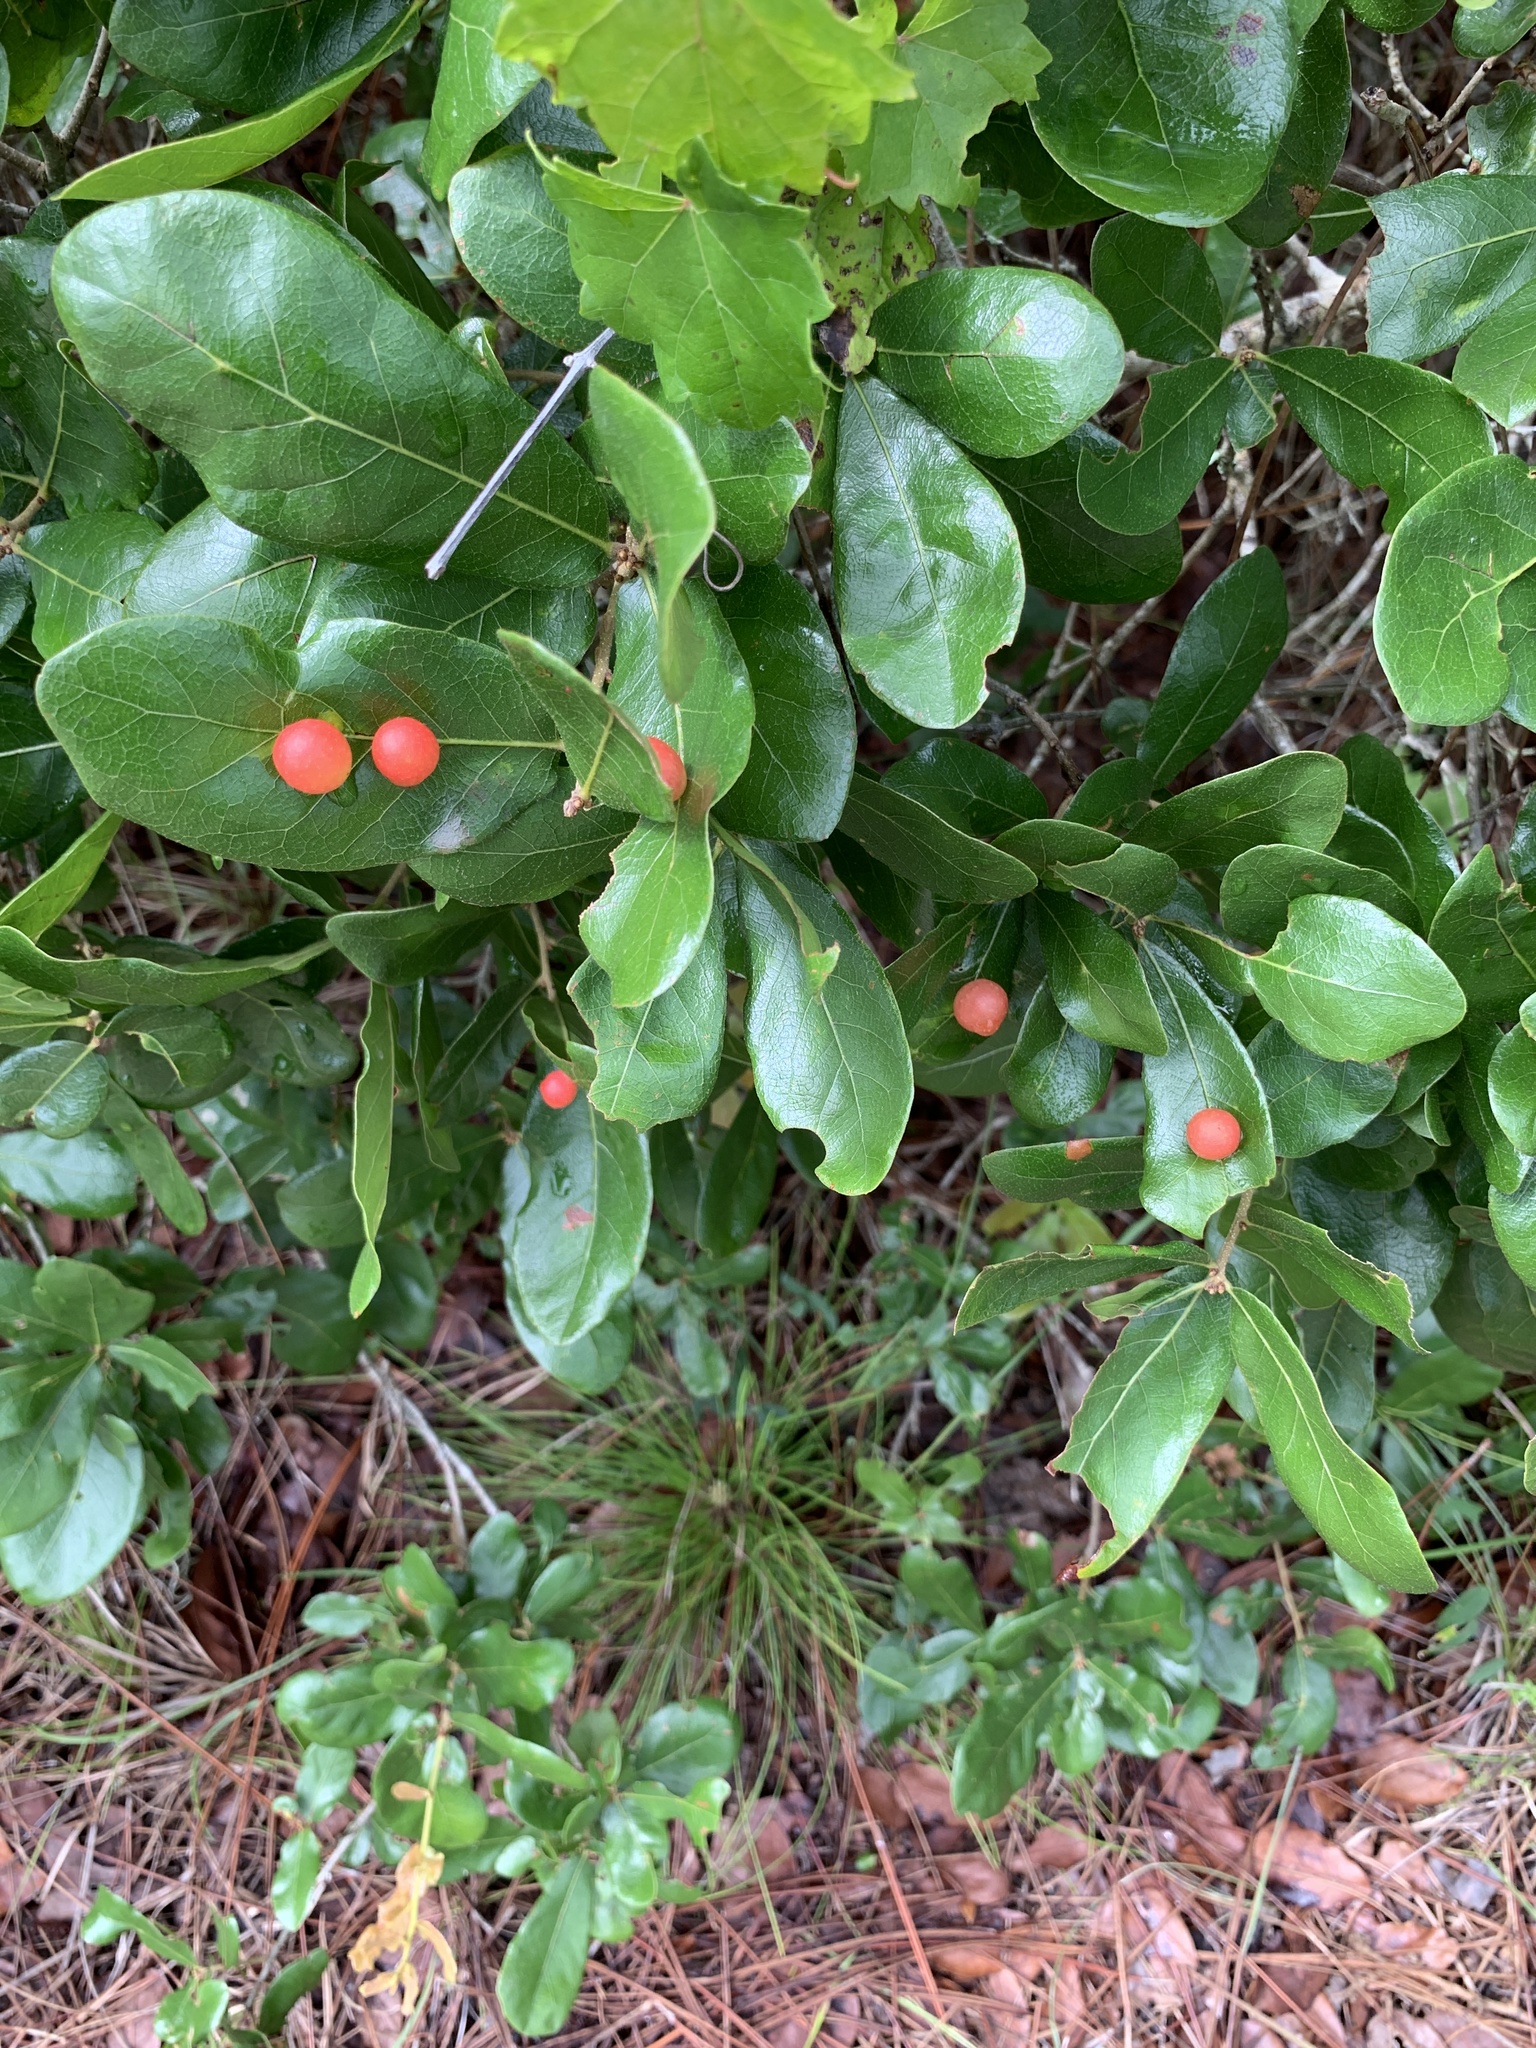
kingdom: Animalia
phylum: Arthropoda
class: Insecta
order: Hymenoptera
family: Cynipidae
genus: Trigonaspis
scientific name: Trigonaspis
